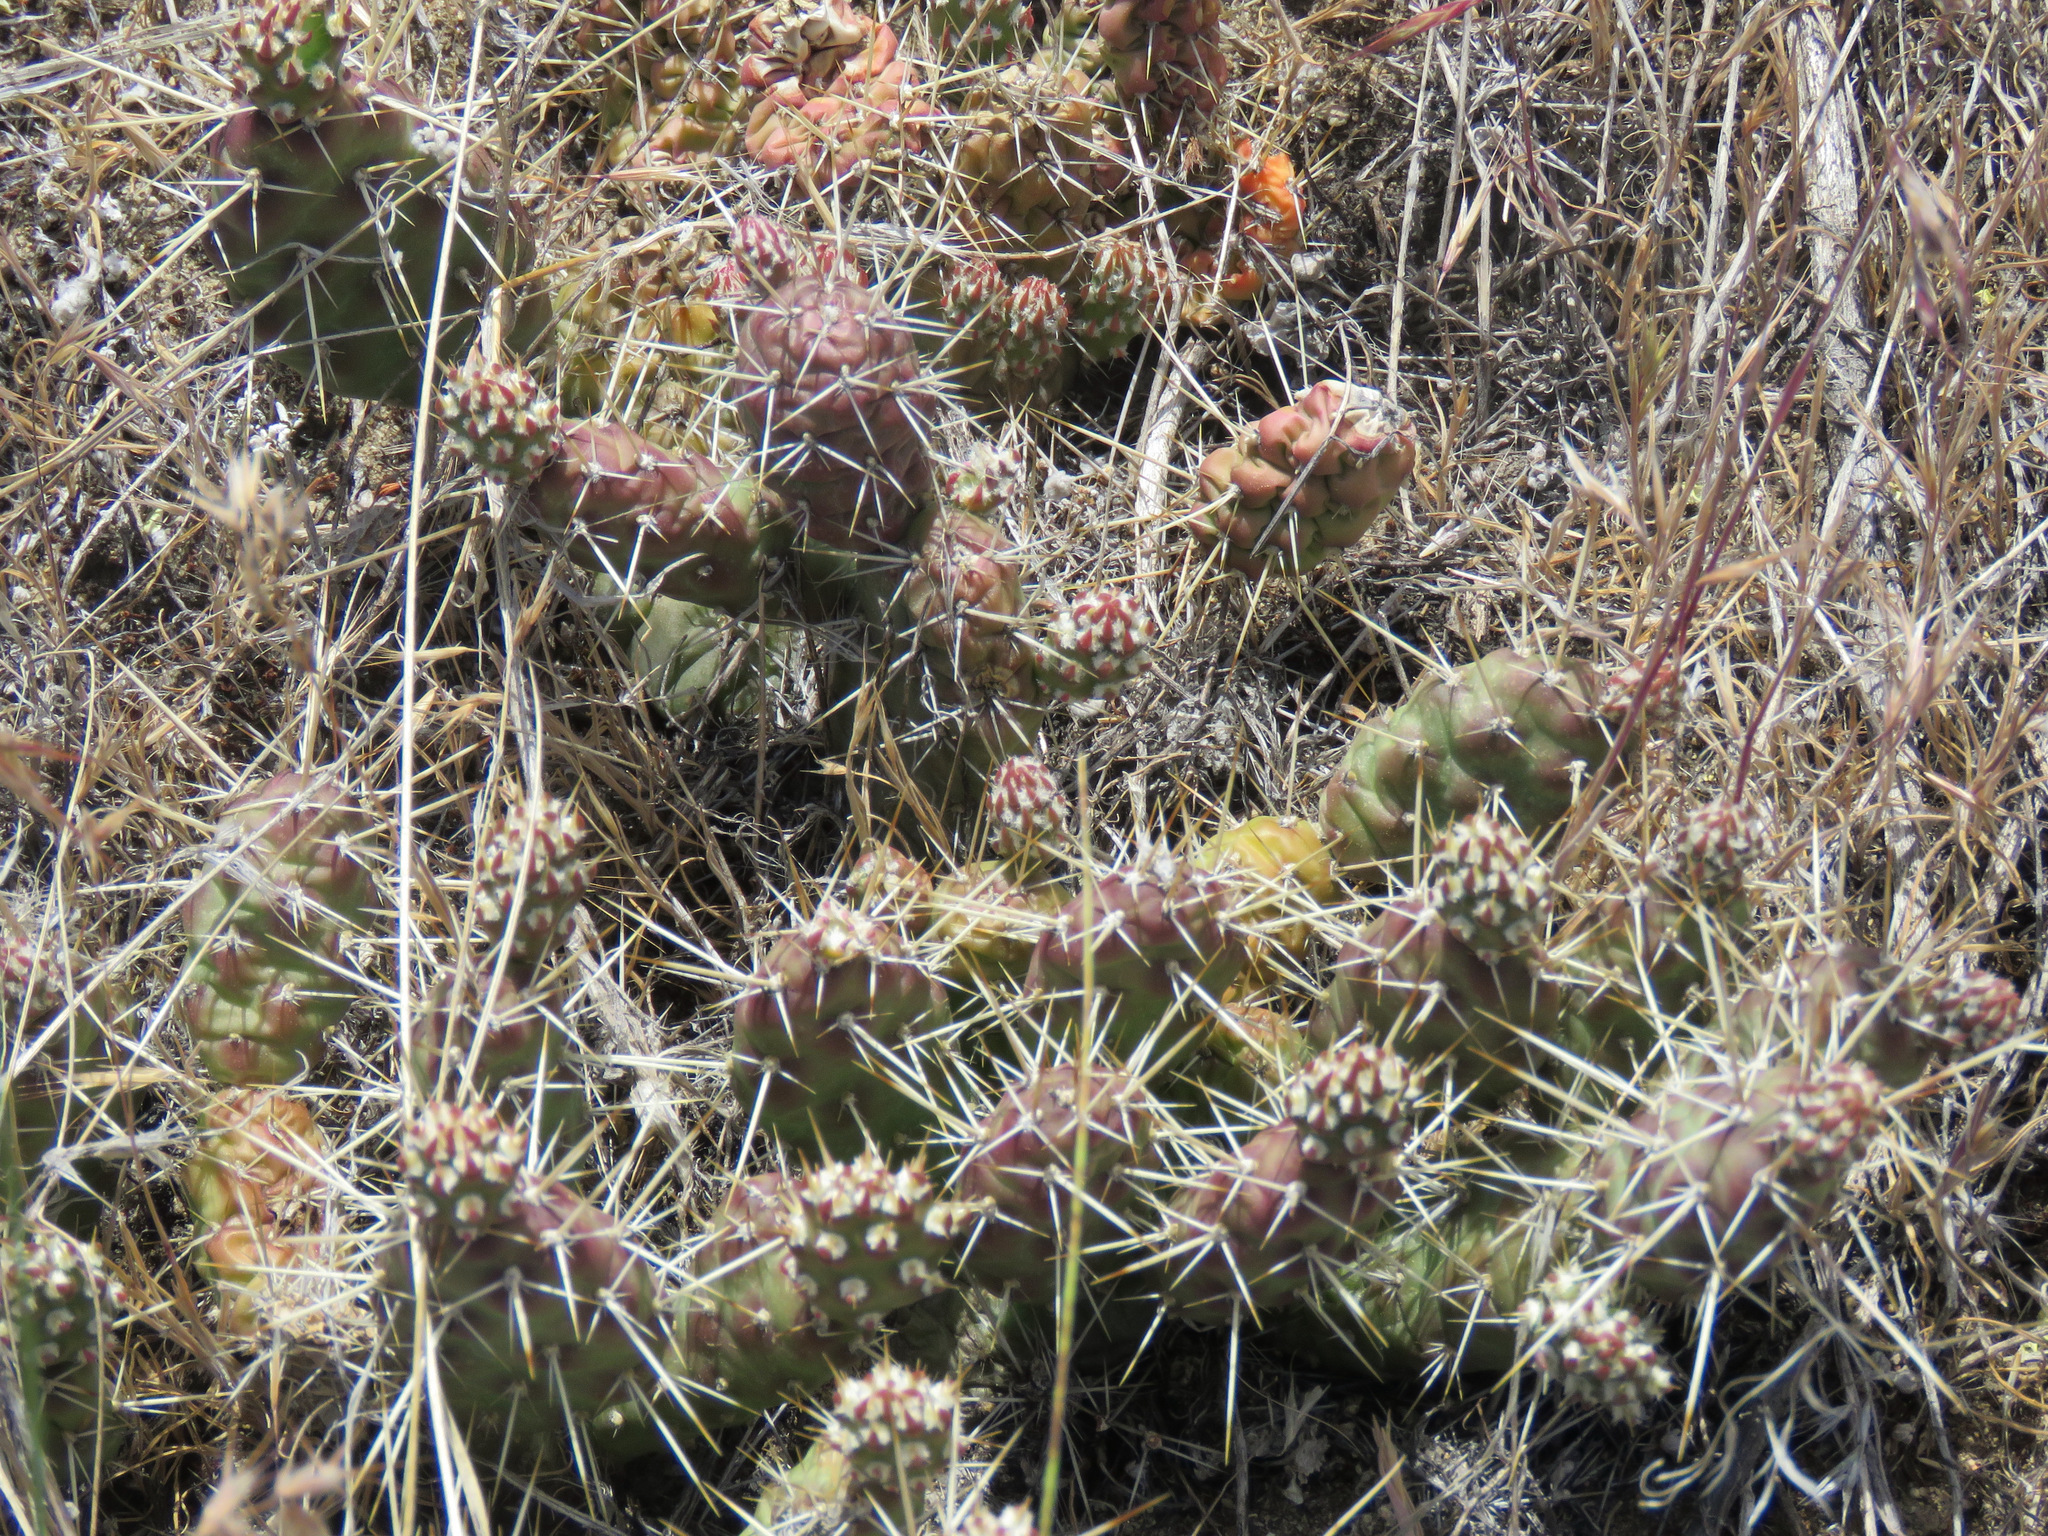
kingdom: Plantae
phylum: Tracheophyta
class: Magnoliopsida
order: Caryophyllales
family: Cactaceae
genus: Opuntia
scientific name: Opuntia fragilis
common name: Brittle cactus
